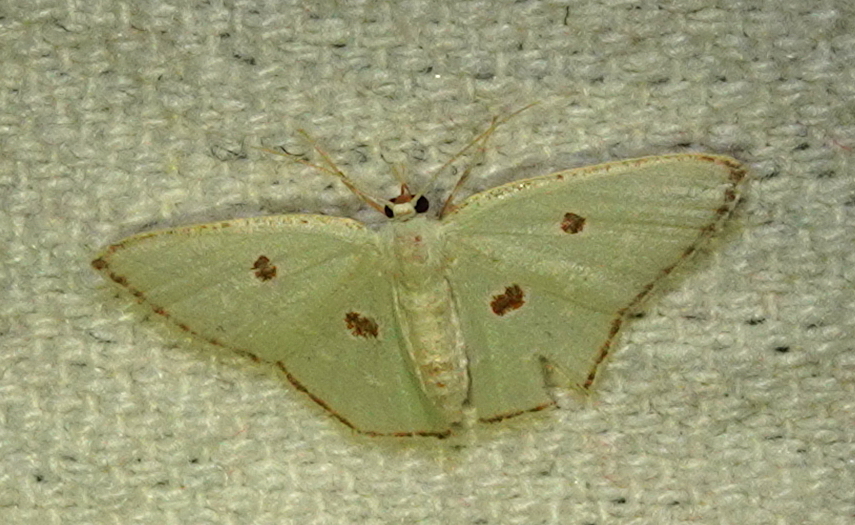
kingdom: Animalia
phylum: Arthropoda
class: Insecta
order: Lepidoptera
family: Geometridae
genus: Comostola
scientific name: Comostola laesaria
